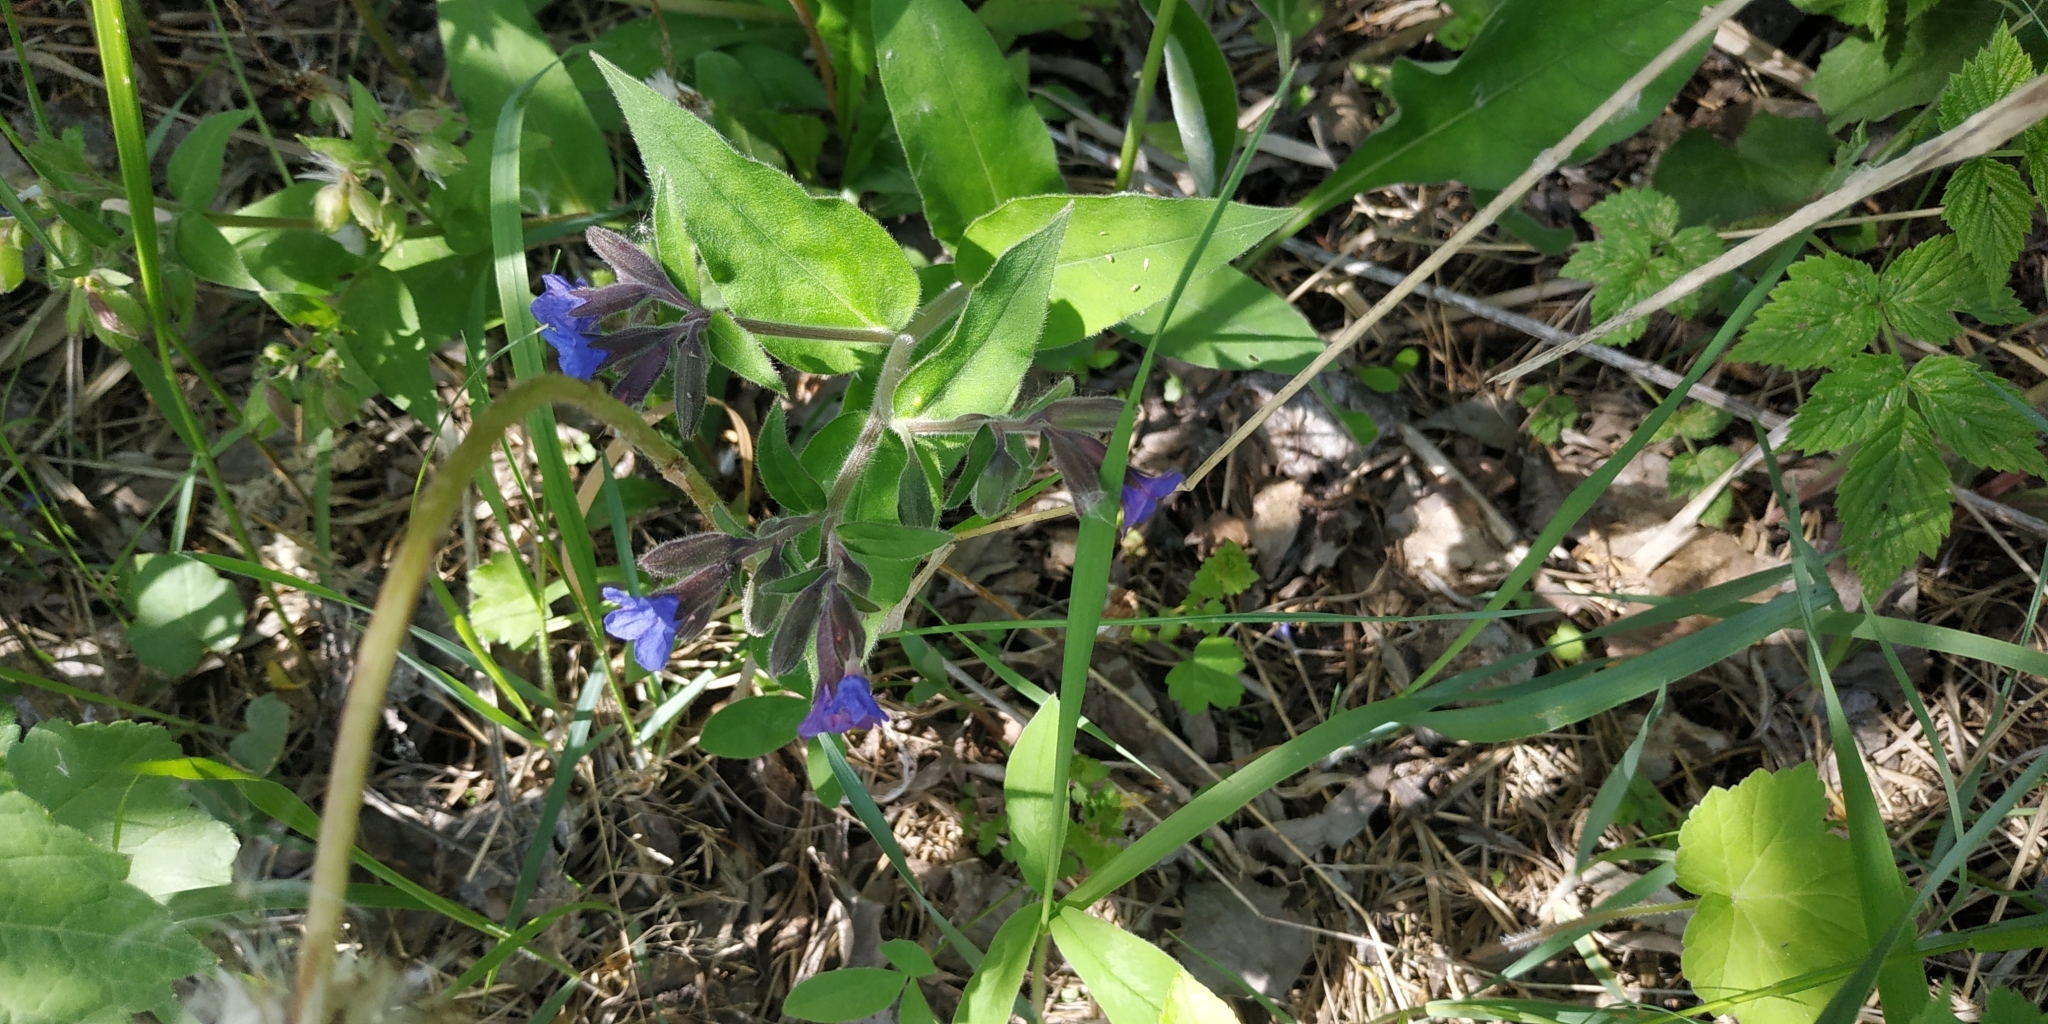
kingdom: Plantae
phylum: Tracheophyta
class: Magnoliopsida
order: Boraginales
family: Boraginaceae
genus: Pulmonaria
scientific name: Pulmonaria mollis
